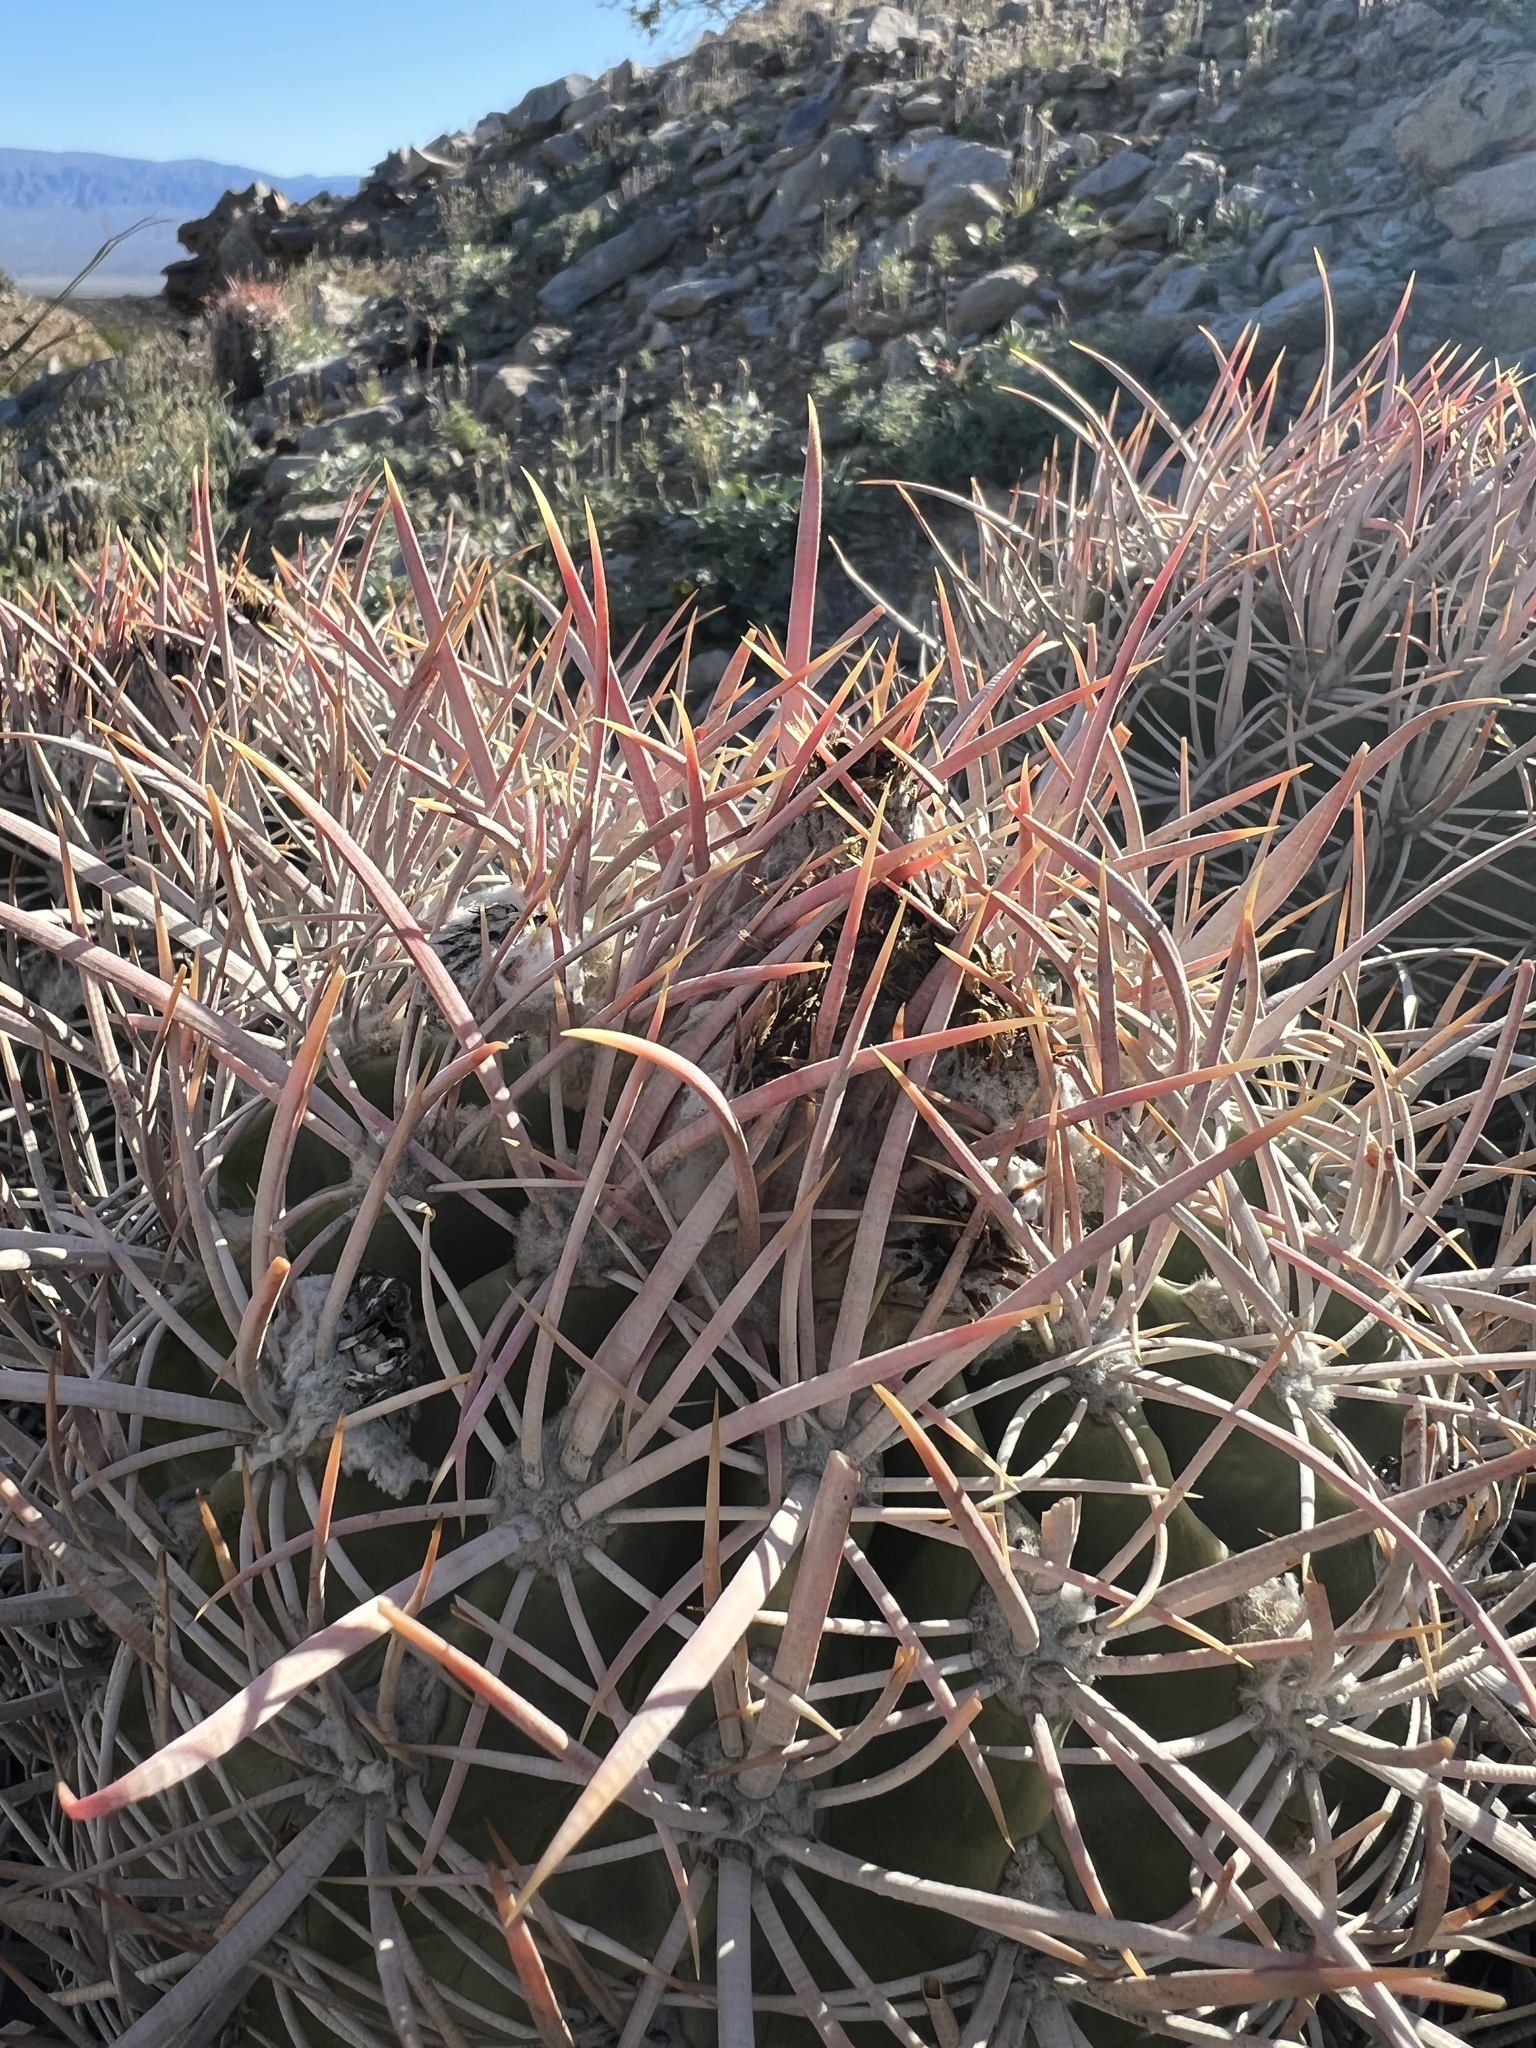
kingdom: Plantae
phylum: Tracheophyta
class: Magnoliopsida
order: Caryophyllales
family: Cactaceae
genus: Echinocactus
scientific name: Echinocactus polycephalus
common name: Cottontop cactus
